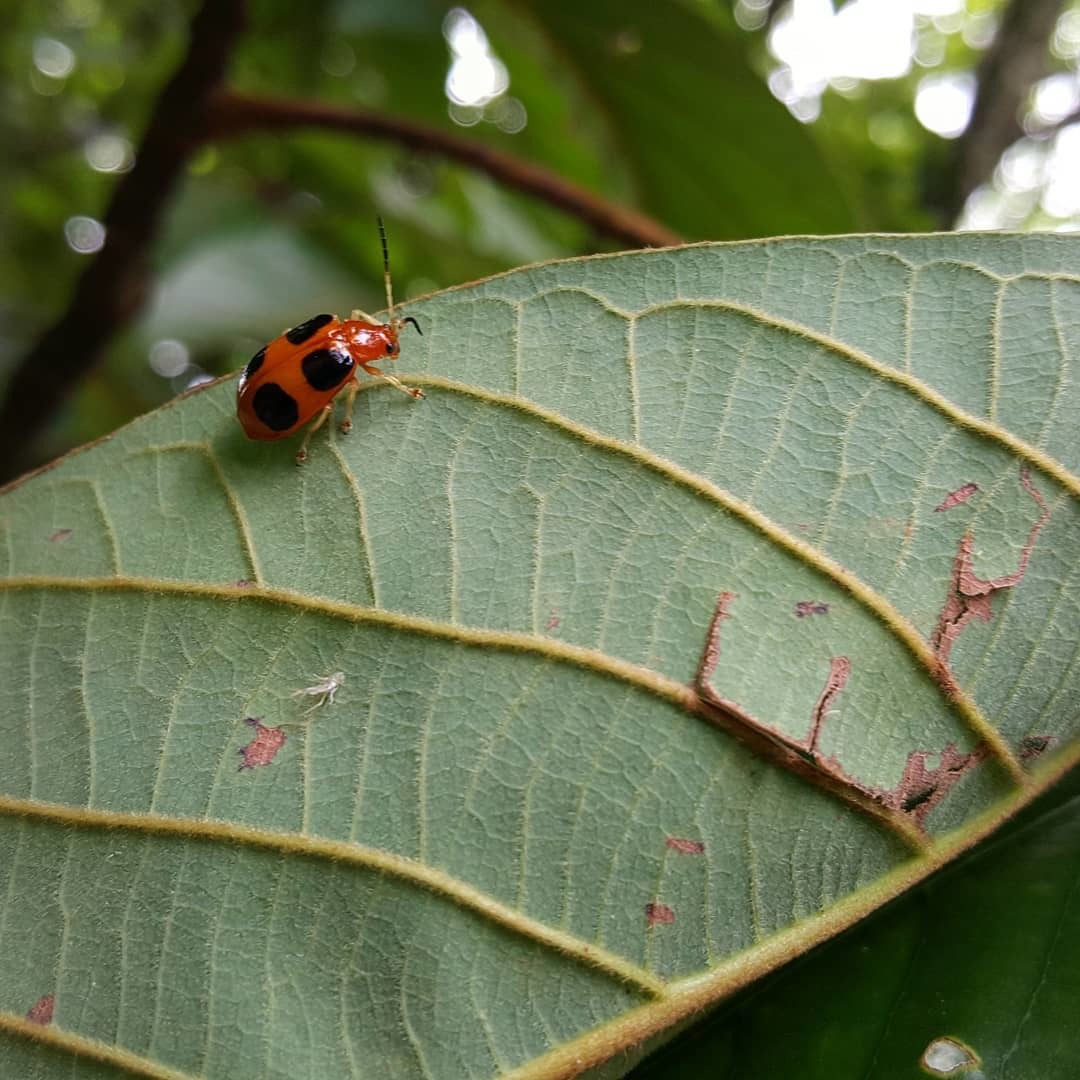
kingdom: Animalia
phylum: Arthropoda
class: Insecta
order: Coleoptera
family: Chrysomelidae
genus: Isotes
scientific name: Isotes
